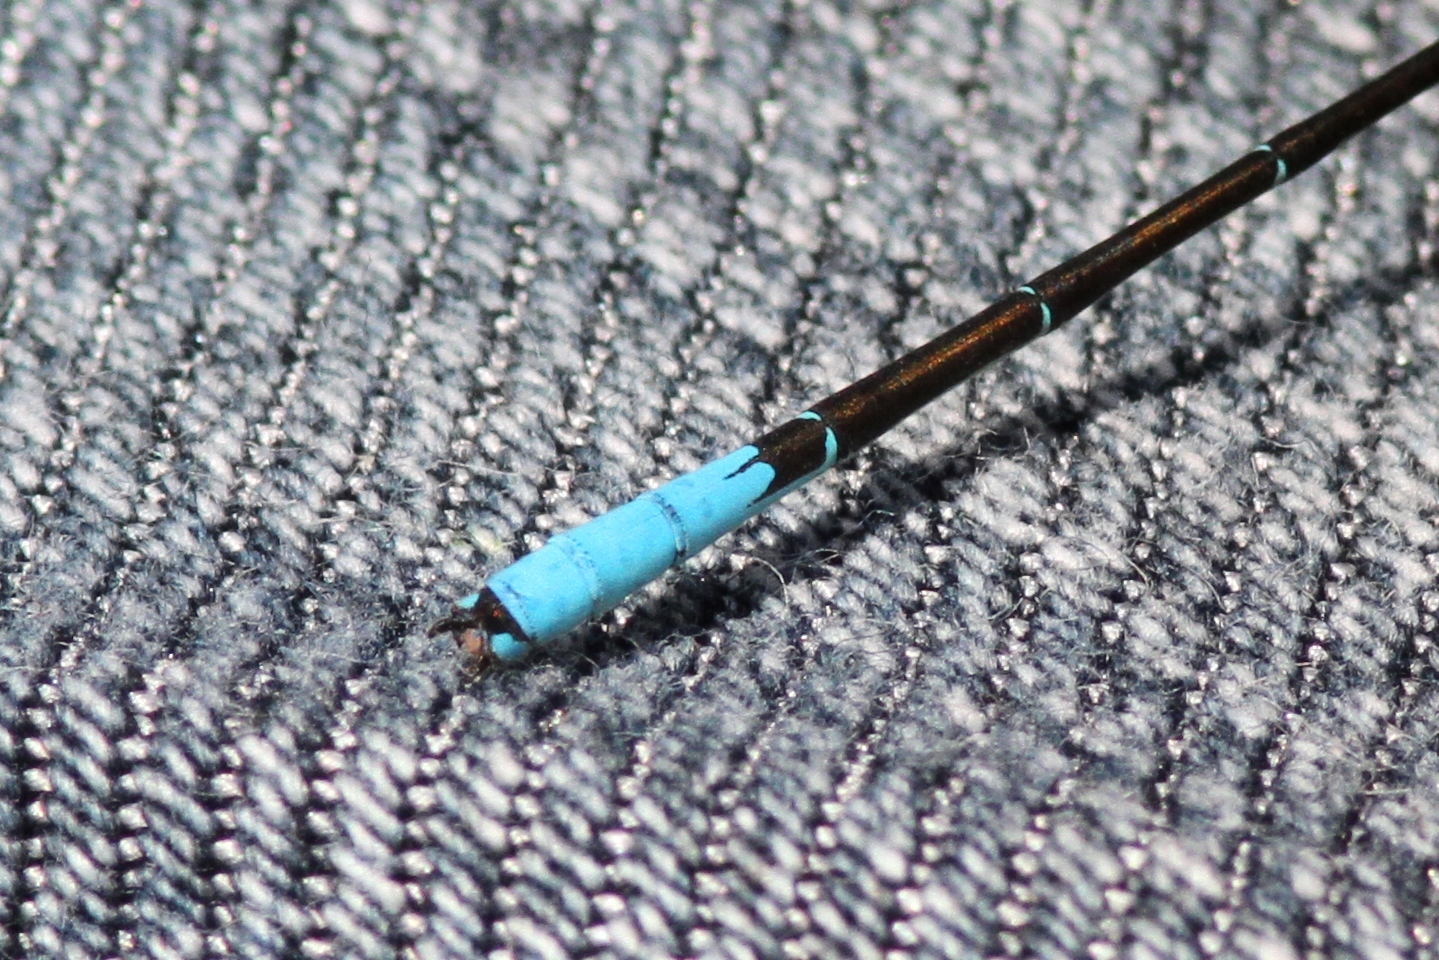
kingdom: Animalia
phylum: Arthropoda
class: Insecta
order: Odonata
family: Coenagrionidae
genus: Enallagma
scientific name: Enallagma aspersum
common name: Azure bluet
